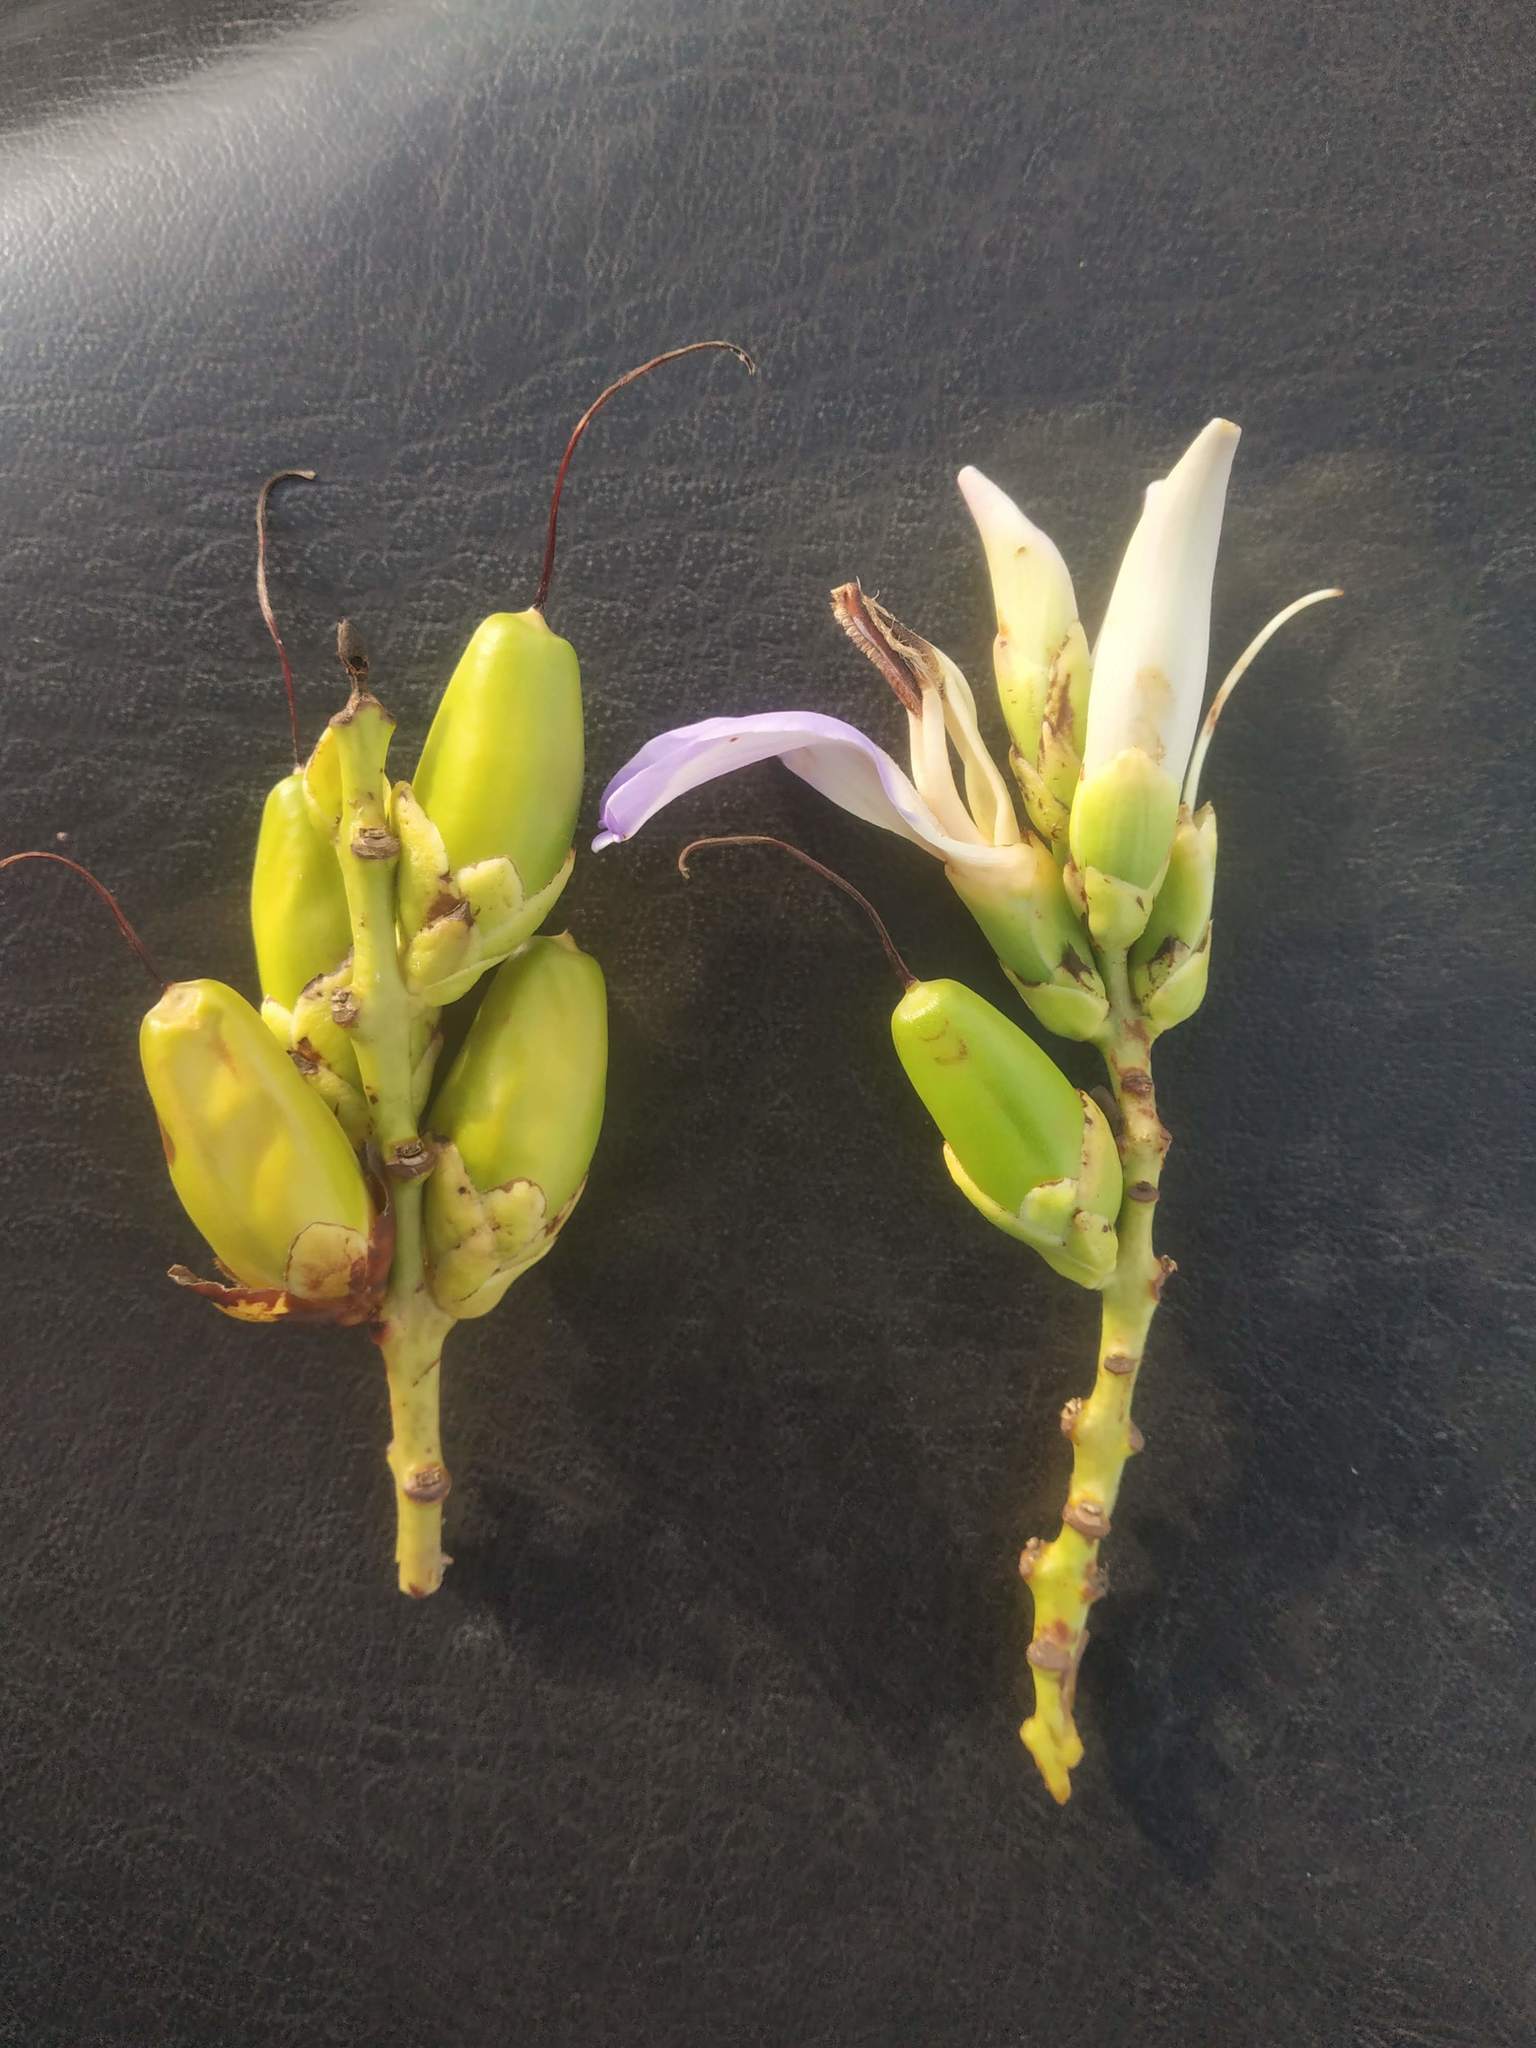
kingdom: Plantae
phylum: Tracheophyta
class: Magnoliopsida
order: Lamiales
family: Acanthaceae
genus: Acanthus
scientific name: Acanthus ilicifolius
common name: Holy mangrove
